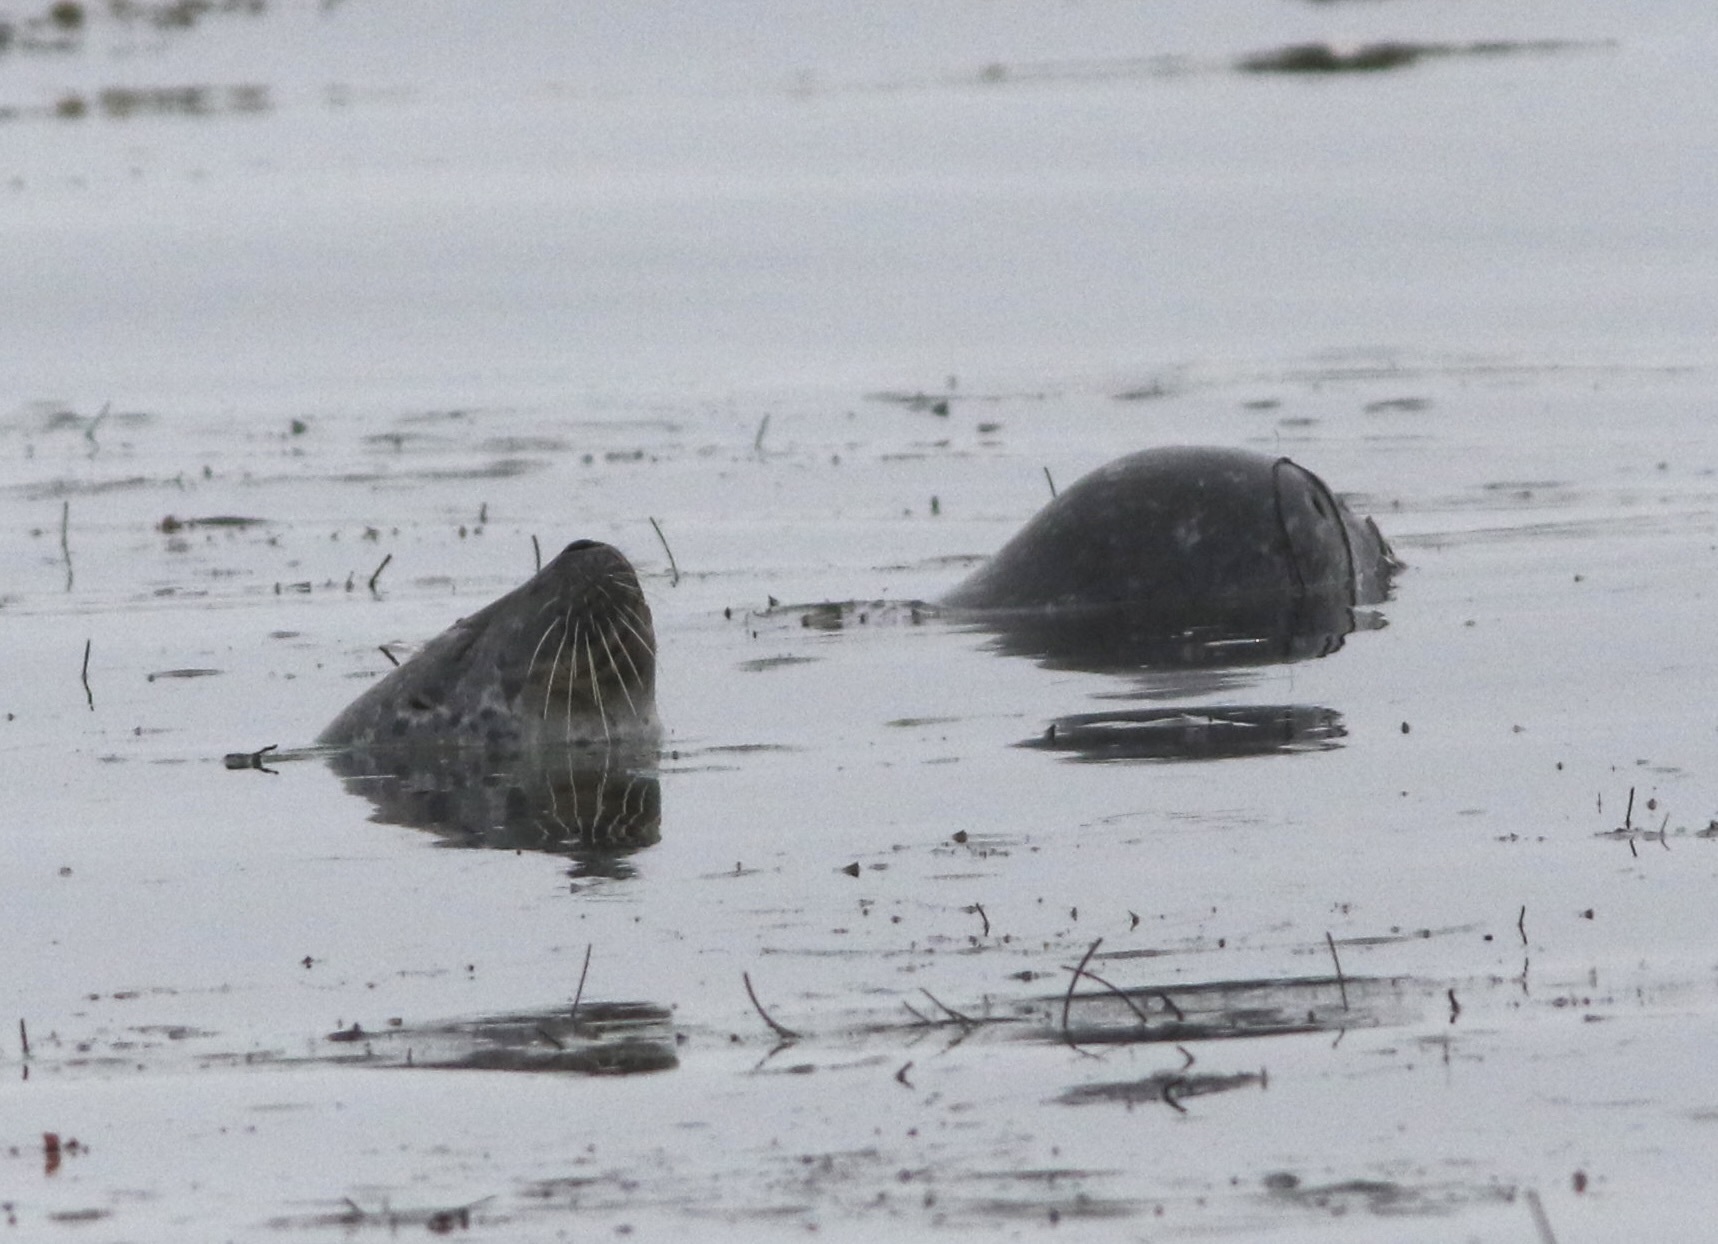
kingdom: Animalia
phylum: Chordata
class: Mammalia
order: Carnivora
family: Phocidae
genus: Phoca
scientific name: Phoca vitulina
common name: Harbor seal
